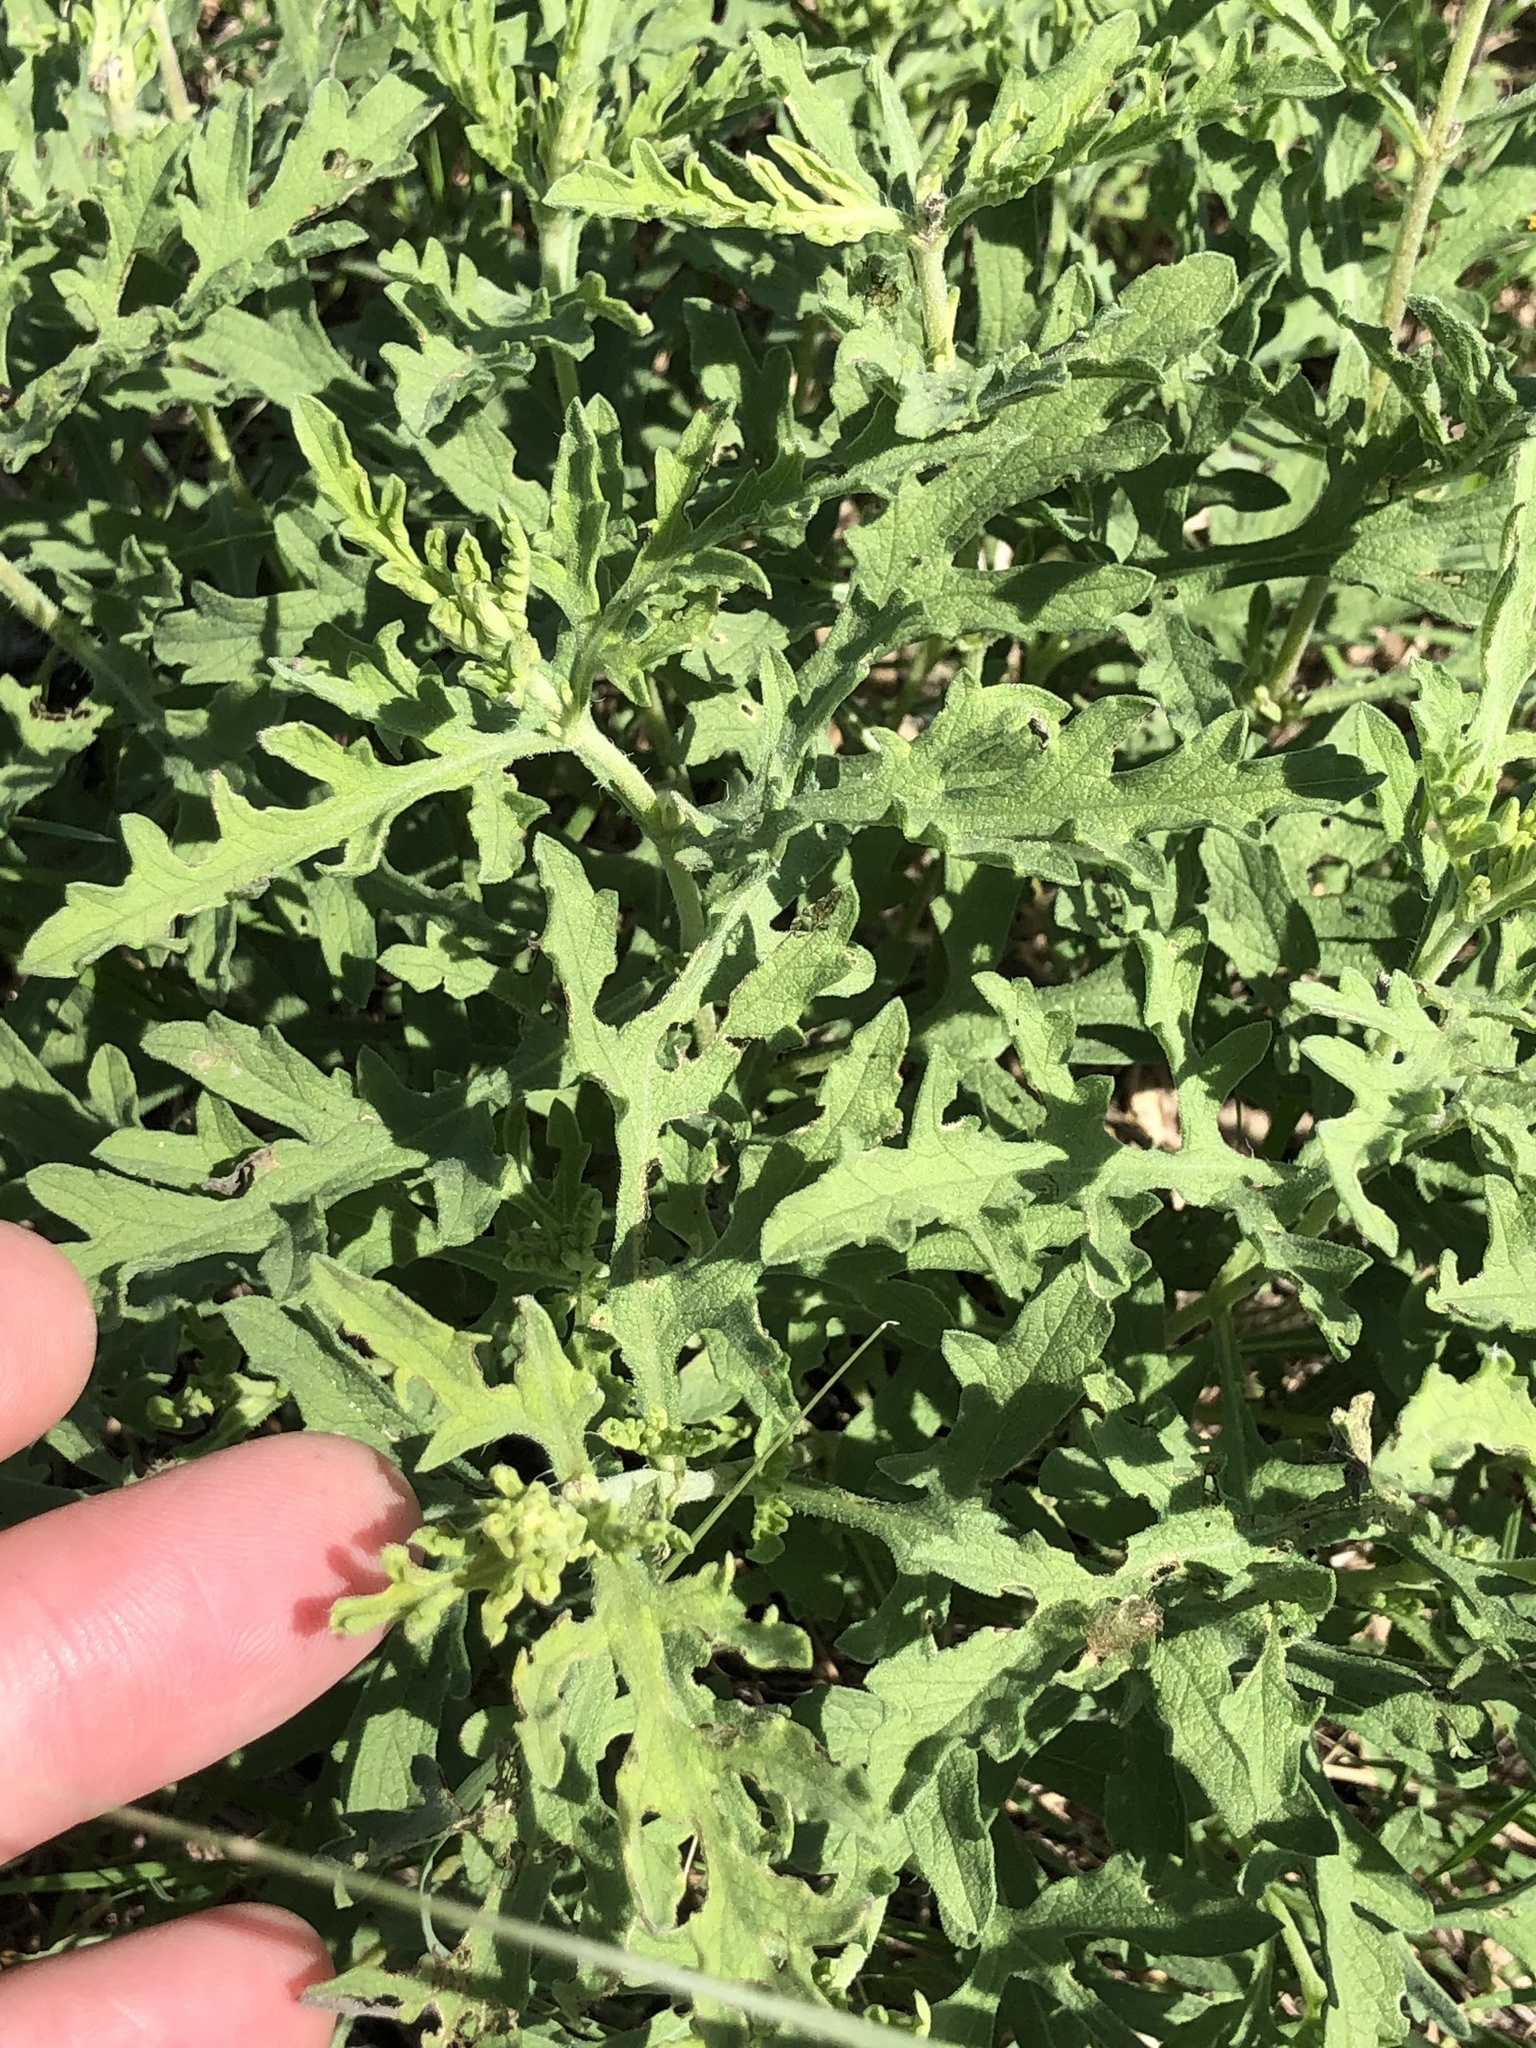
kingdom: Plantae
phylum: Tracheophyta
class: Magnoliopsida
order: Asterales
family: Asteraceae
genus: Ambrosia
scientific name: Ambrosia psilostachya
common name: Perennial ragweed
